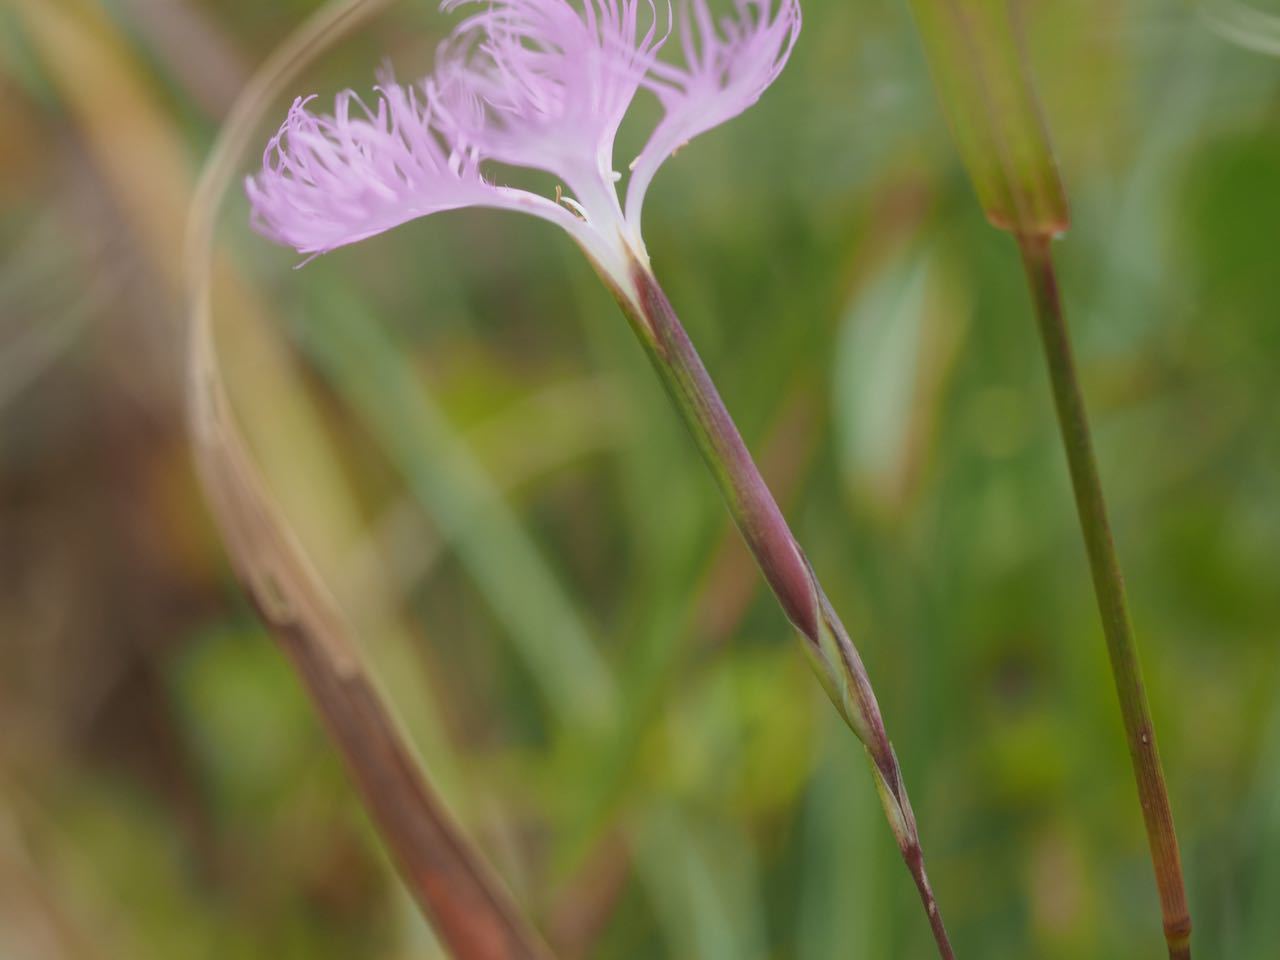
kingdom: Plantae
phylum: Tracheophyta
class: Magnoliopsida
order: Caryophyllales
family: Caryophyllaceae
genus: Dianthus
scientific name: Dianthus longicalyx
